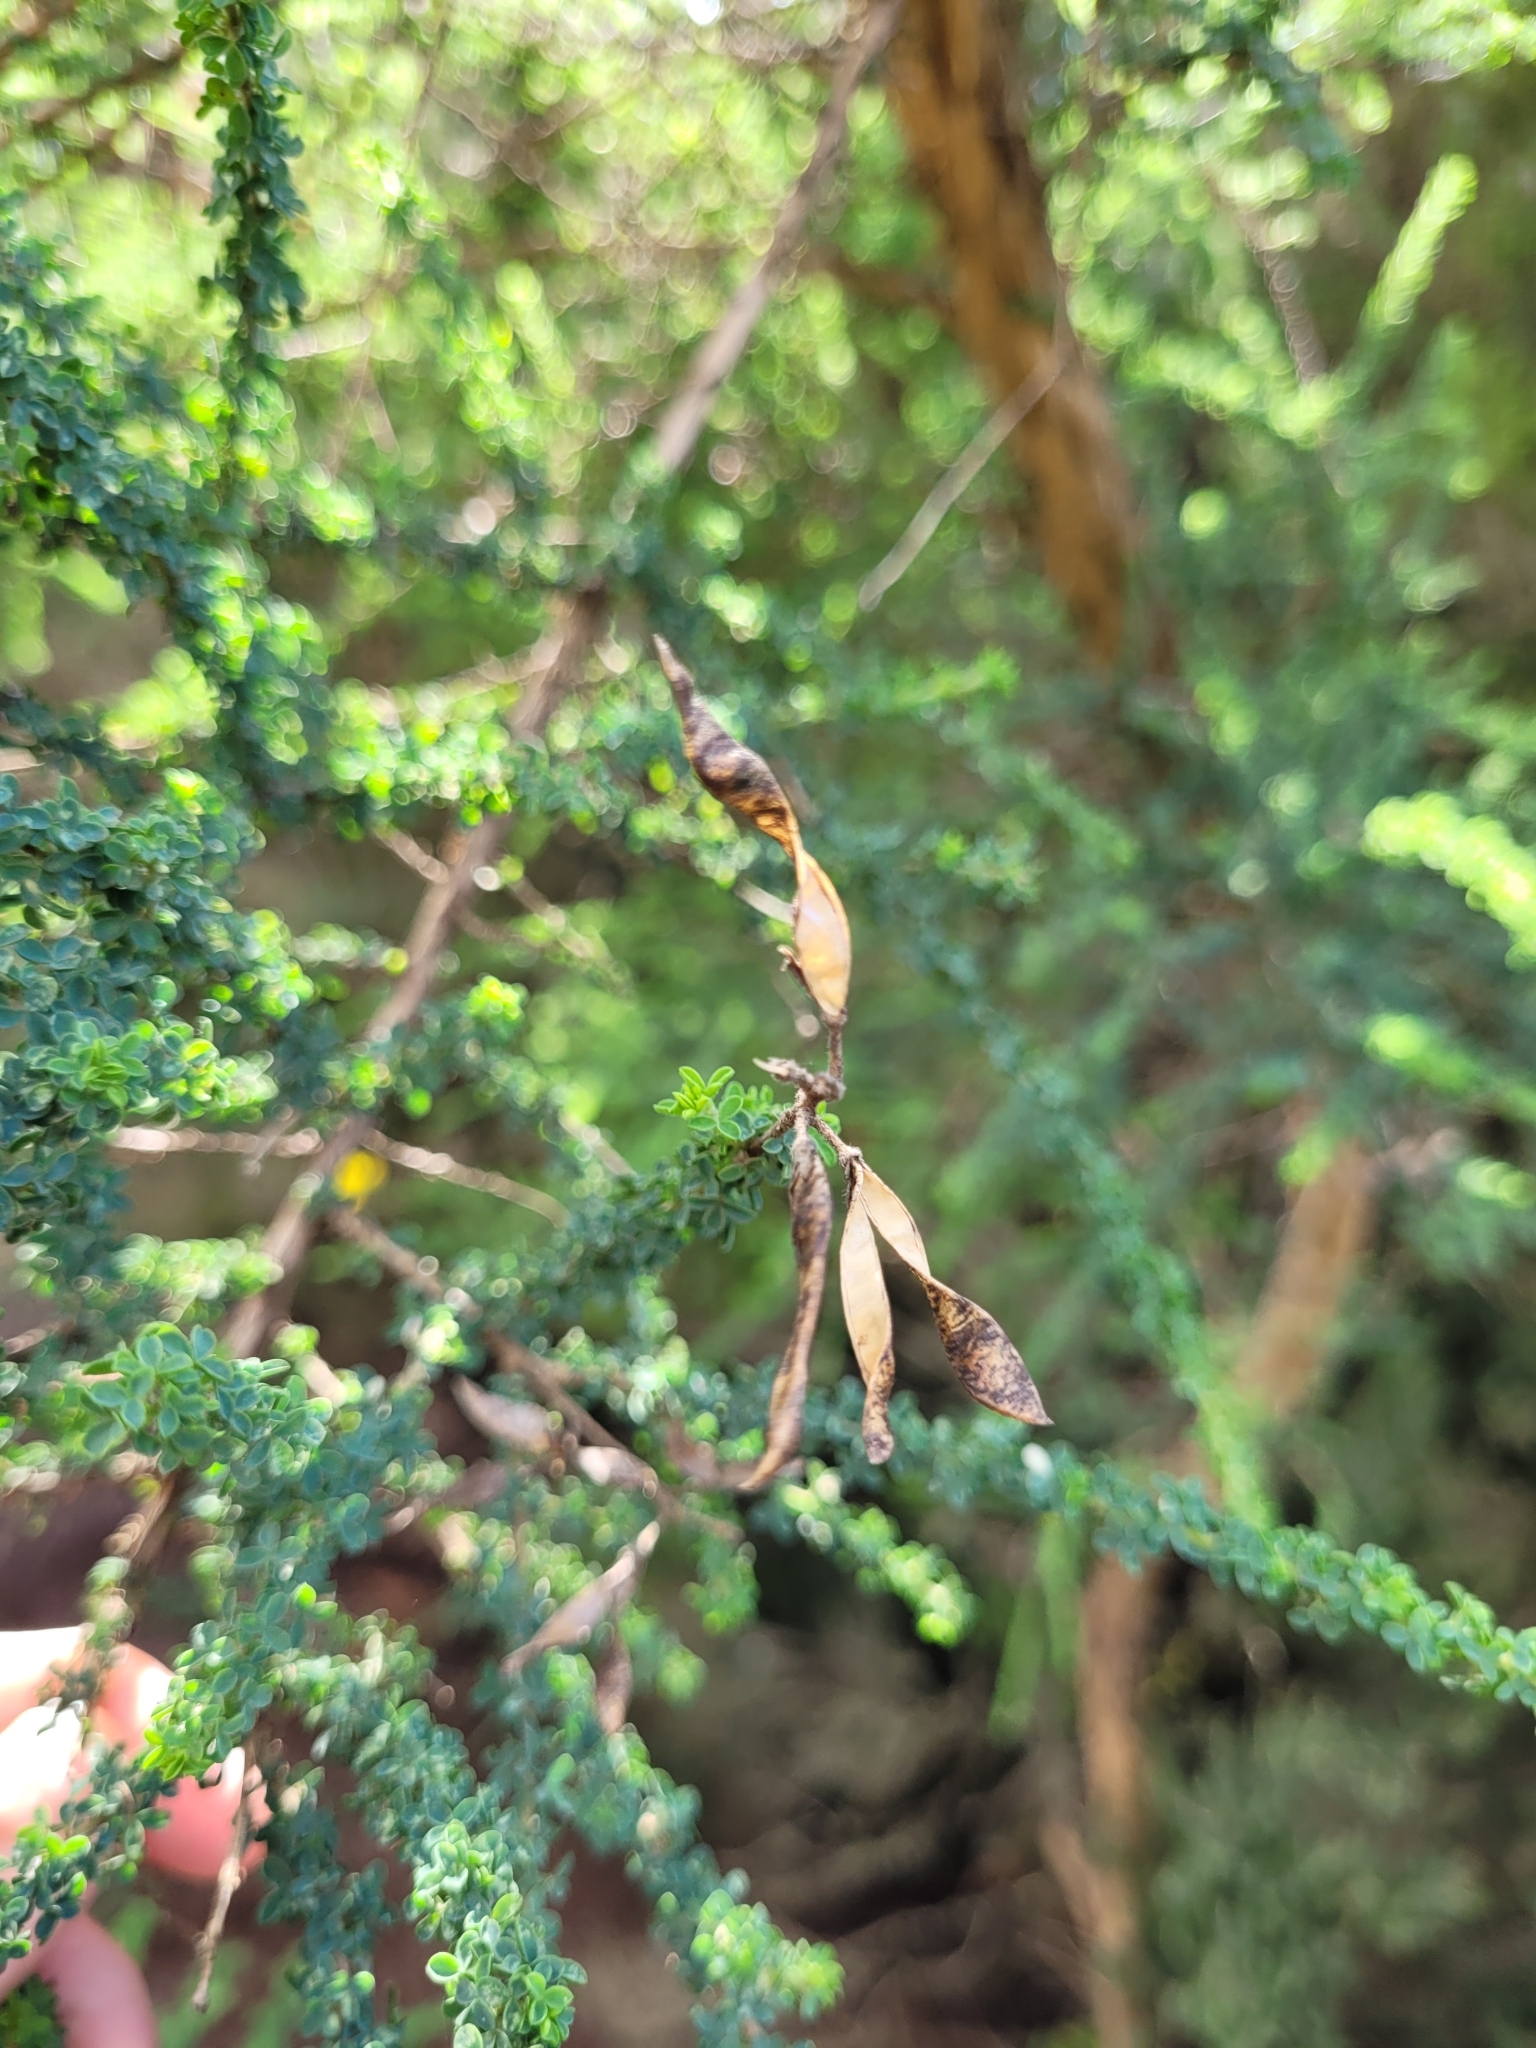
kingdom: Plantae
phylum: Tracheophyta
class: Magnoliopsida
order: Fabales
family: Fabaceae
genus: Adenocarpus
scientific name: Adenocarpus foliolosus
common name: Canary island flatpod
